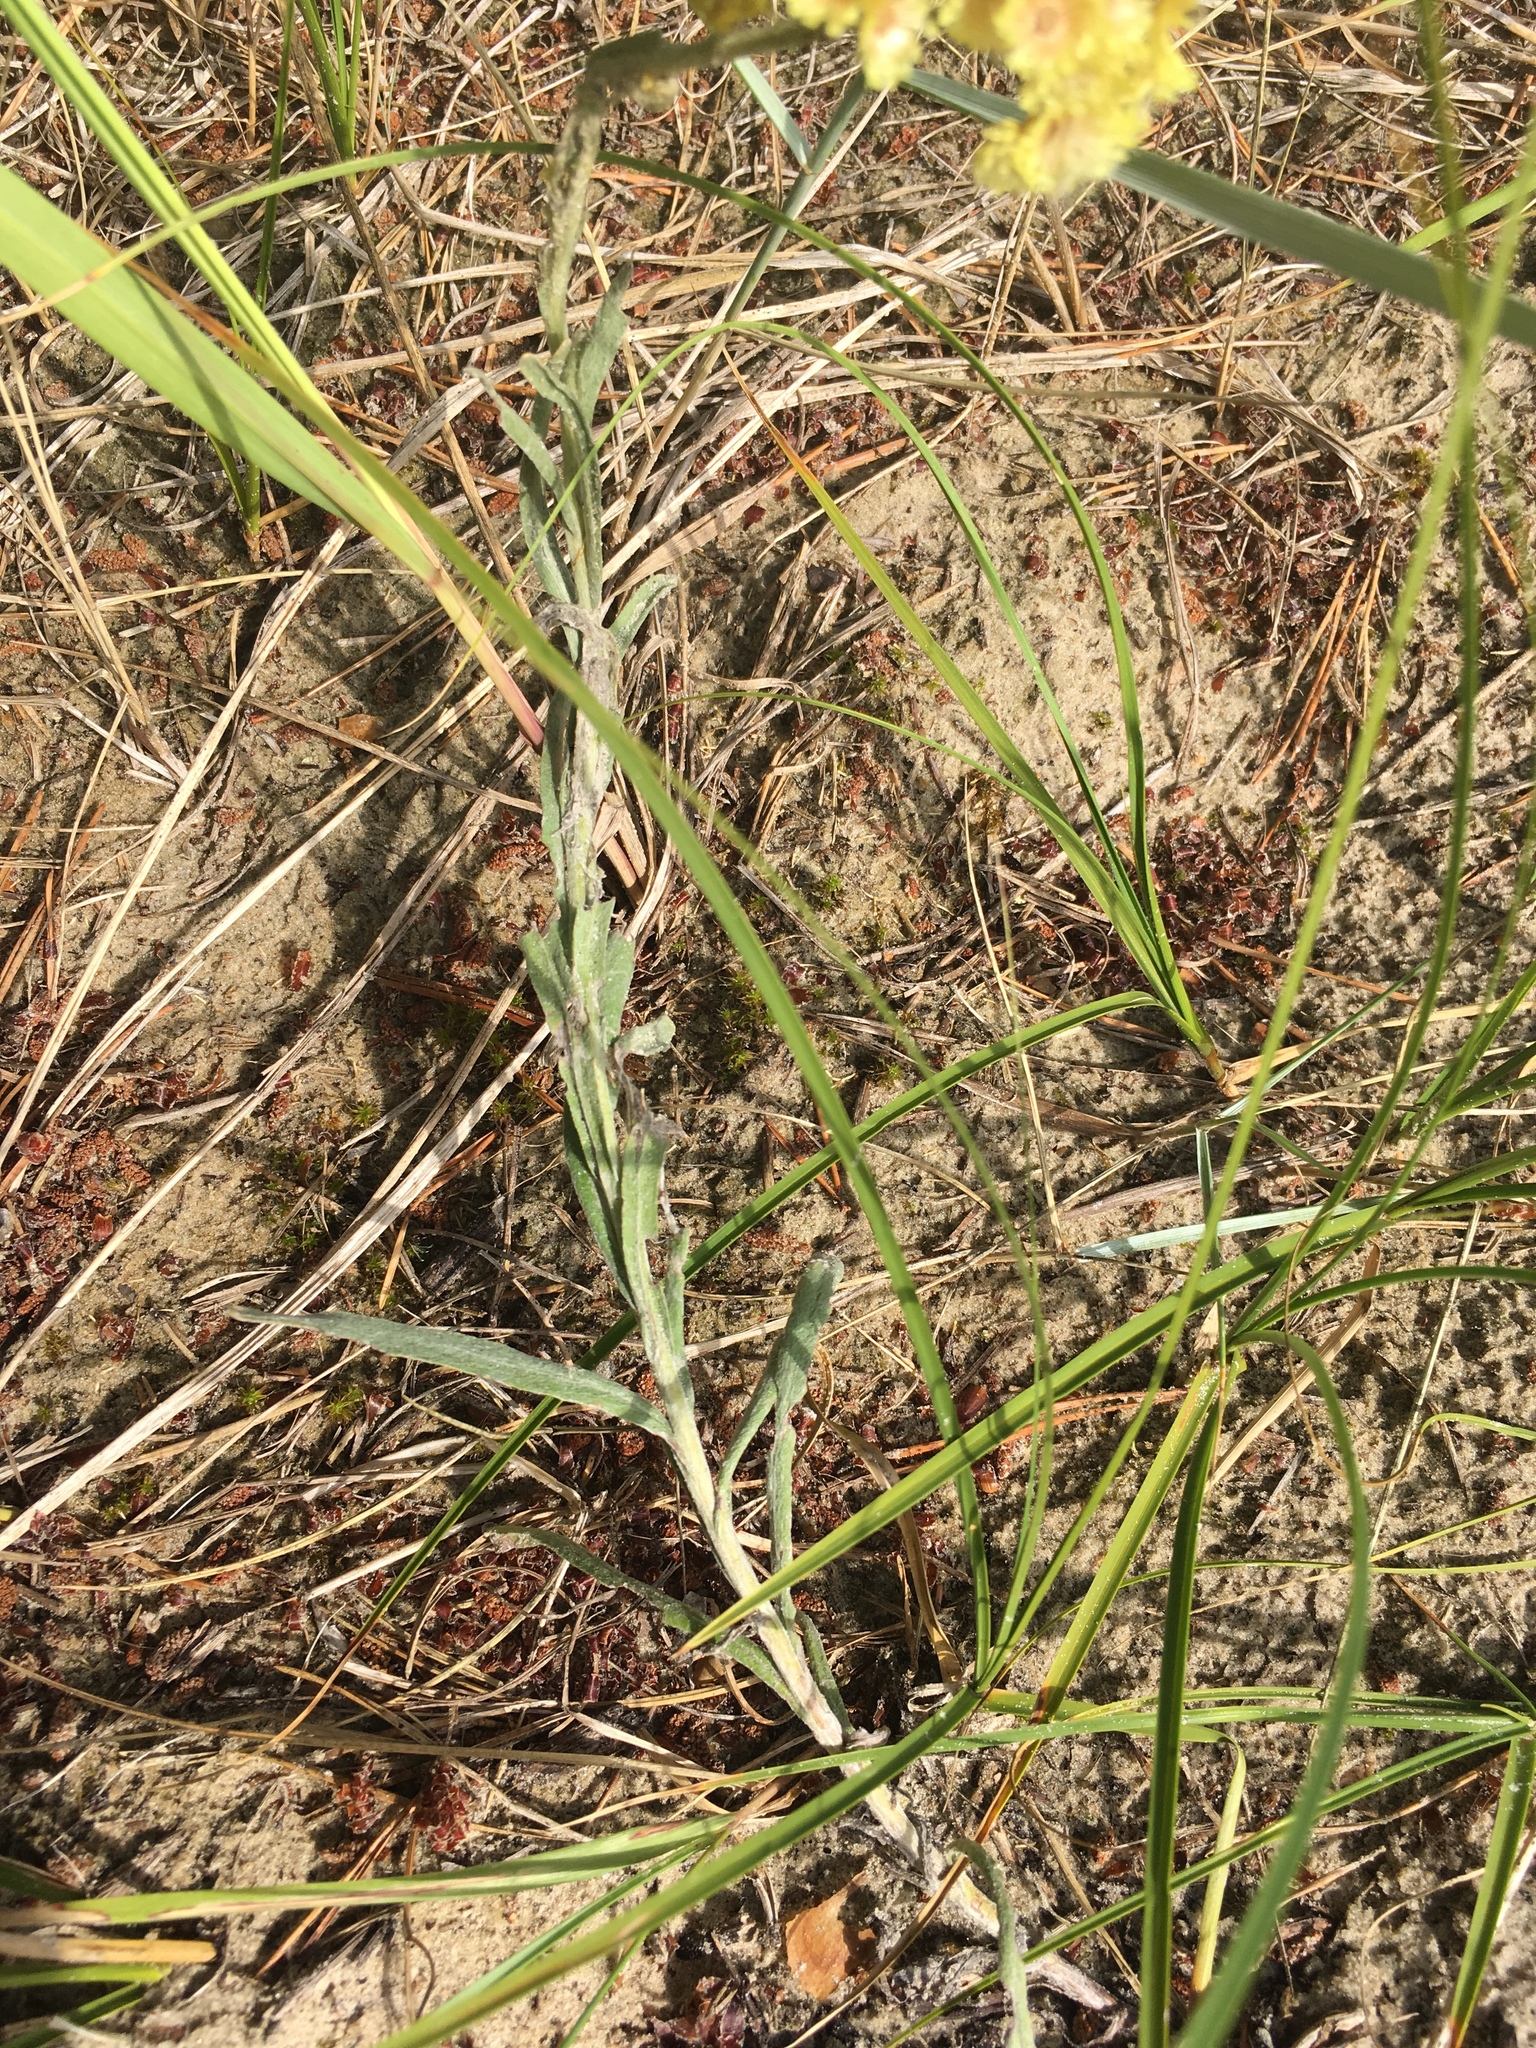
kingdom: Plantae
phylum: Tracheophyta
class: Magnoliopsida
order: Asterales
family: Asteraceae
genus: Helichrysum
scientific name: Helichrysum arenarium
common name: Strawflower
